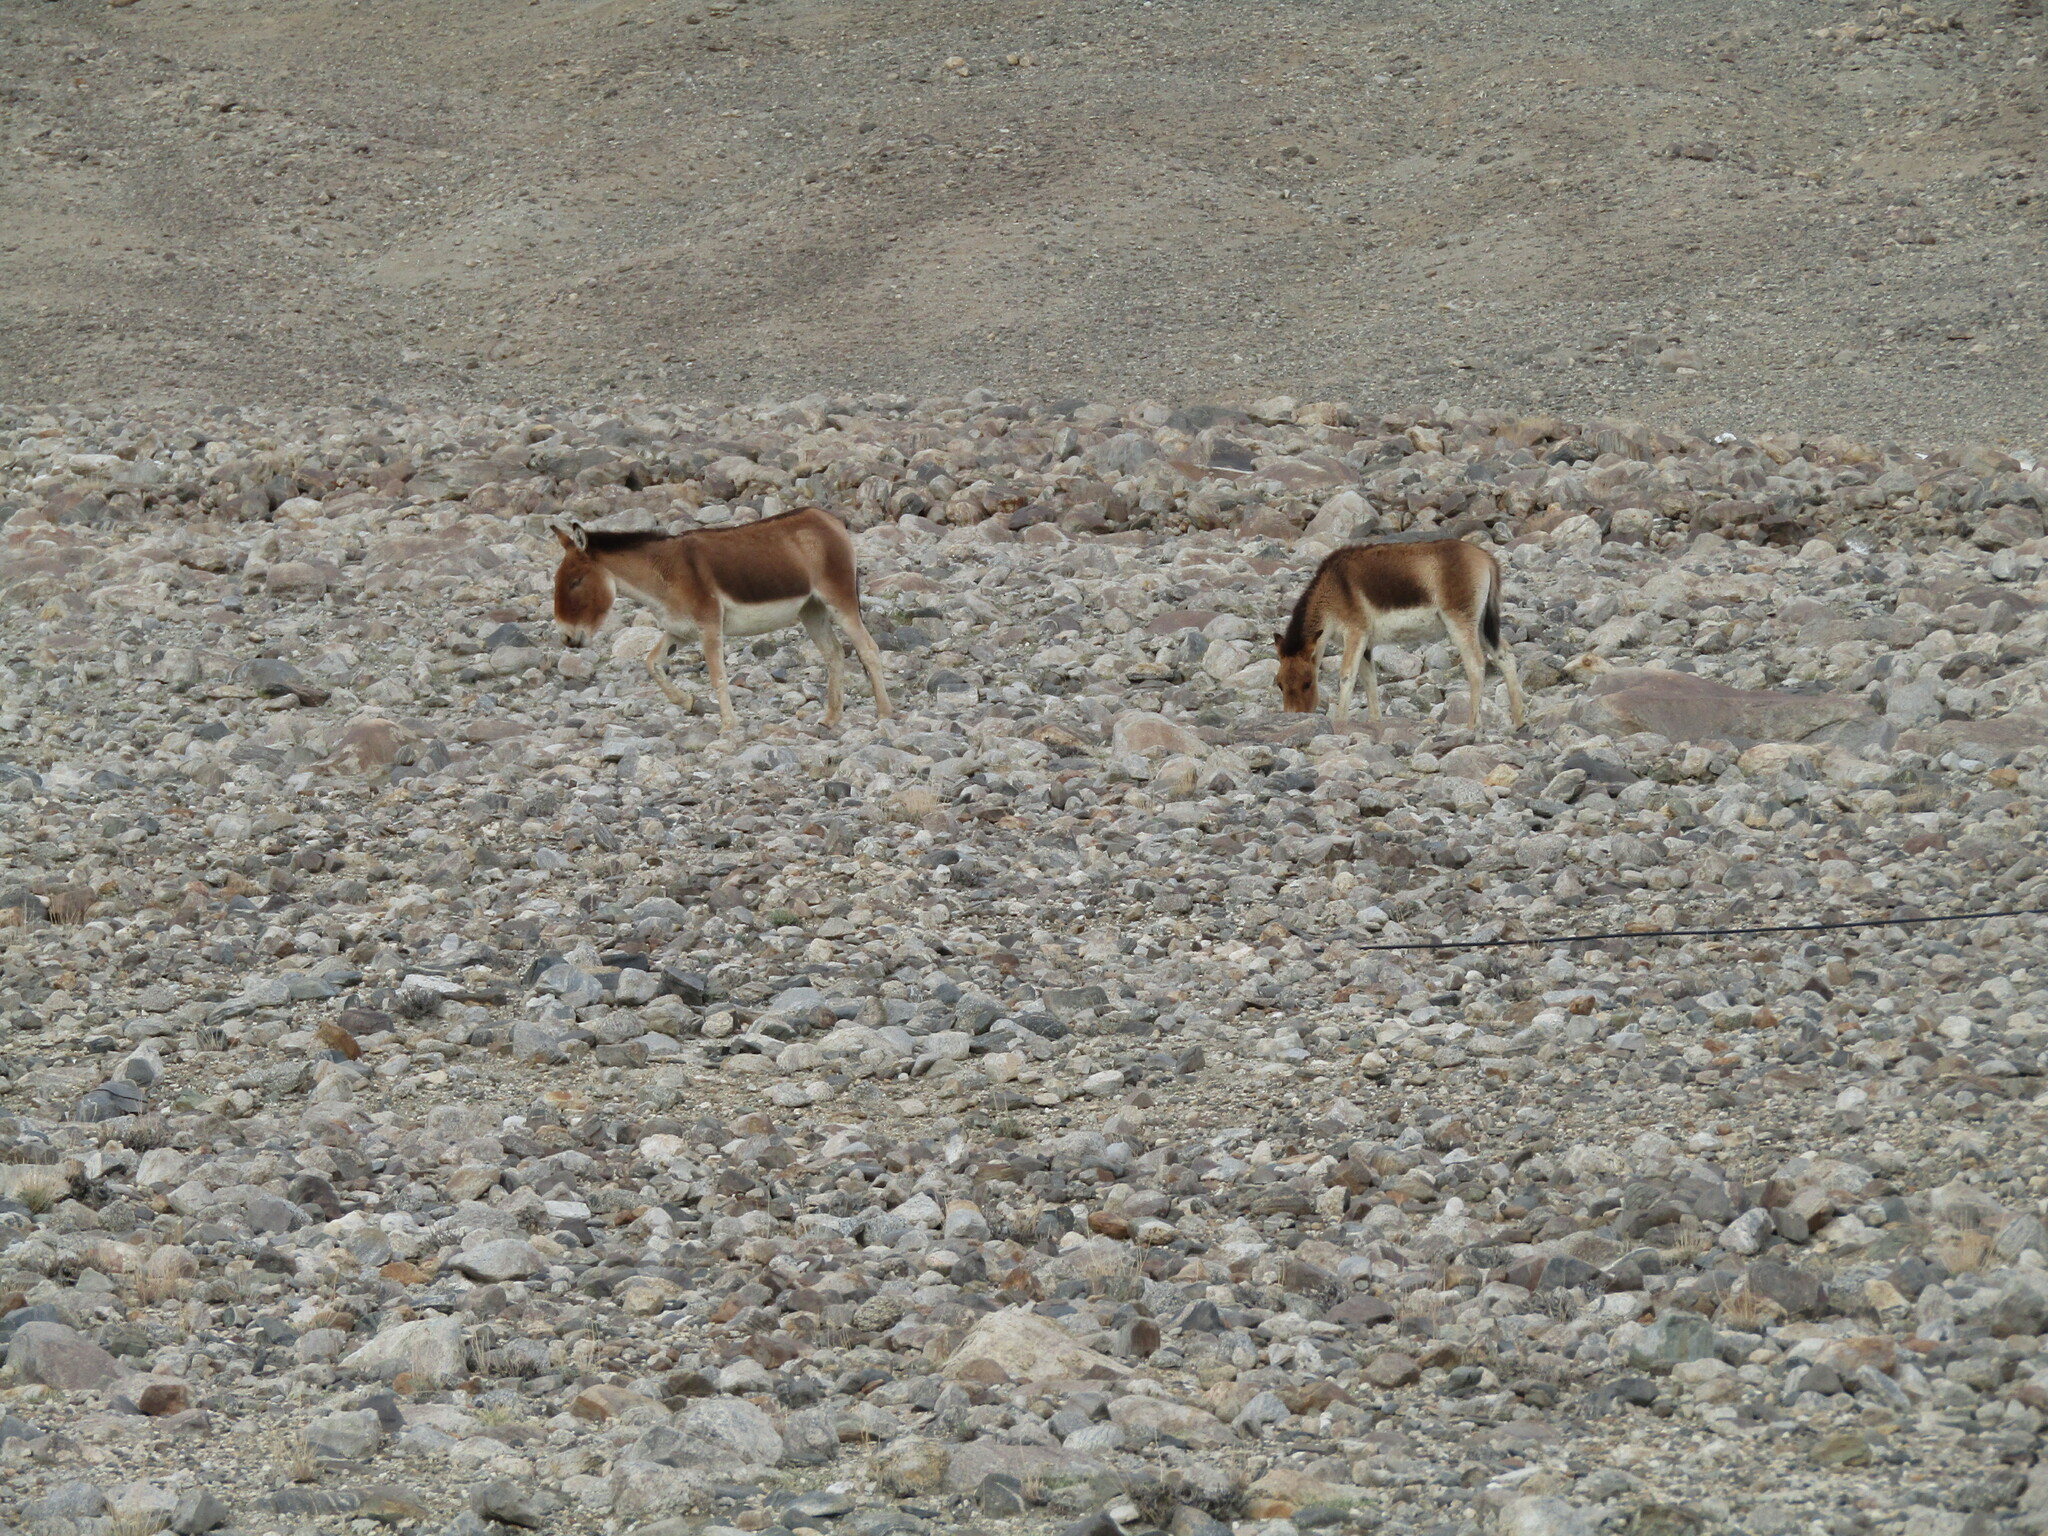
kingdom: Animalia
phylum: Chordata
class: Mammalia
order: Perissodactyla
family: Equidae
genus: Equus
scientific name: Equus kiang
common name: Kiang
